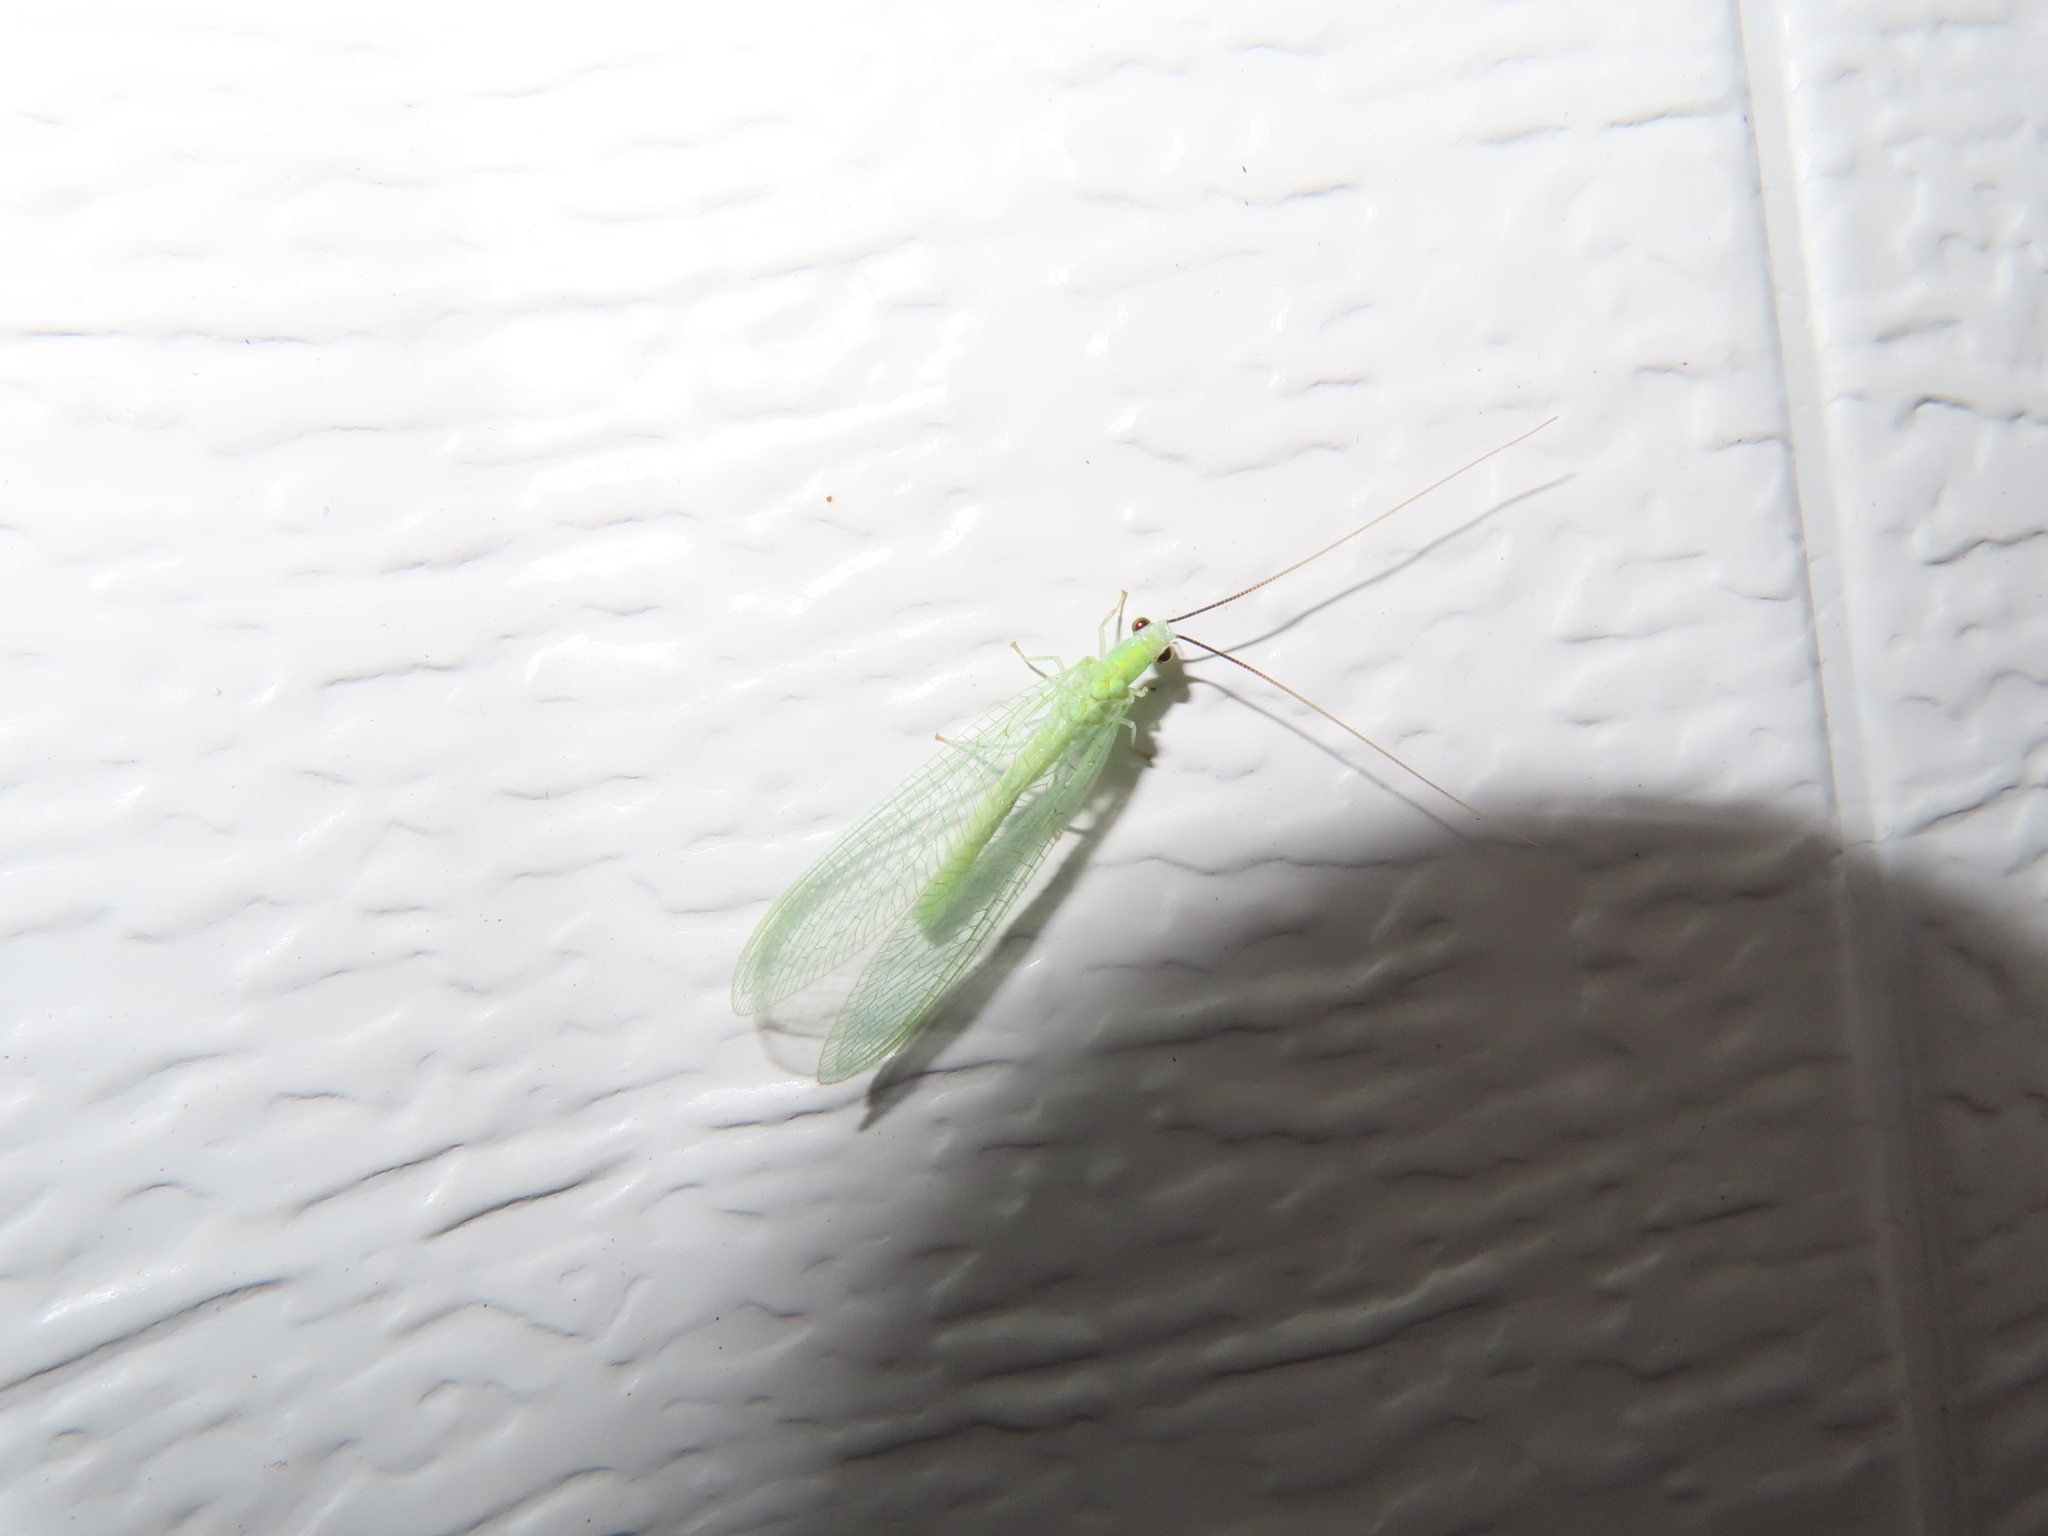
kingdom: Animalia
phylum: Arthropoda
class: Insecta
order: Neuroptera
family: Chrysopidae
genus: Chrysopa
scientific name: Chrysopa nigricornis
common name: Black-horned green lacewing
